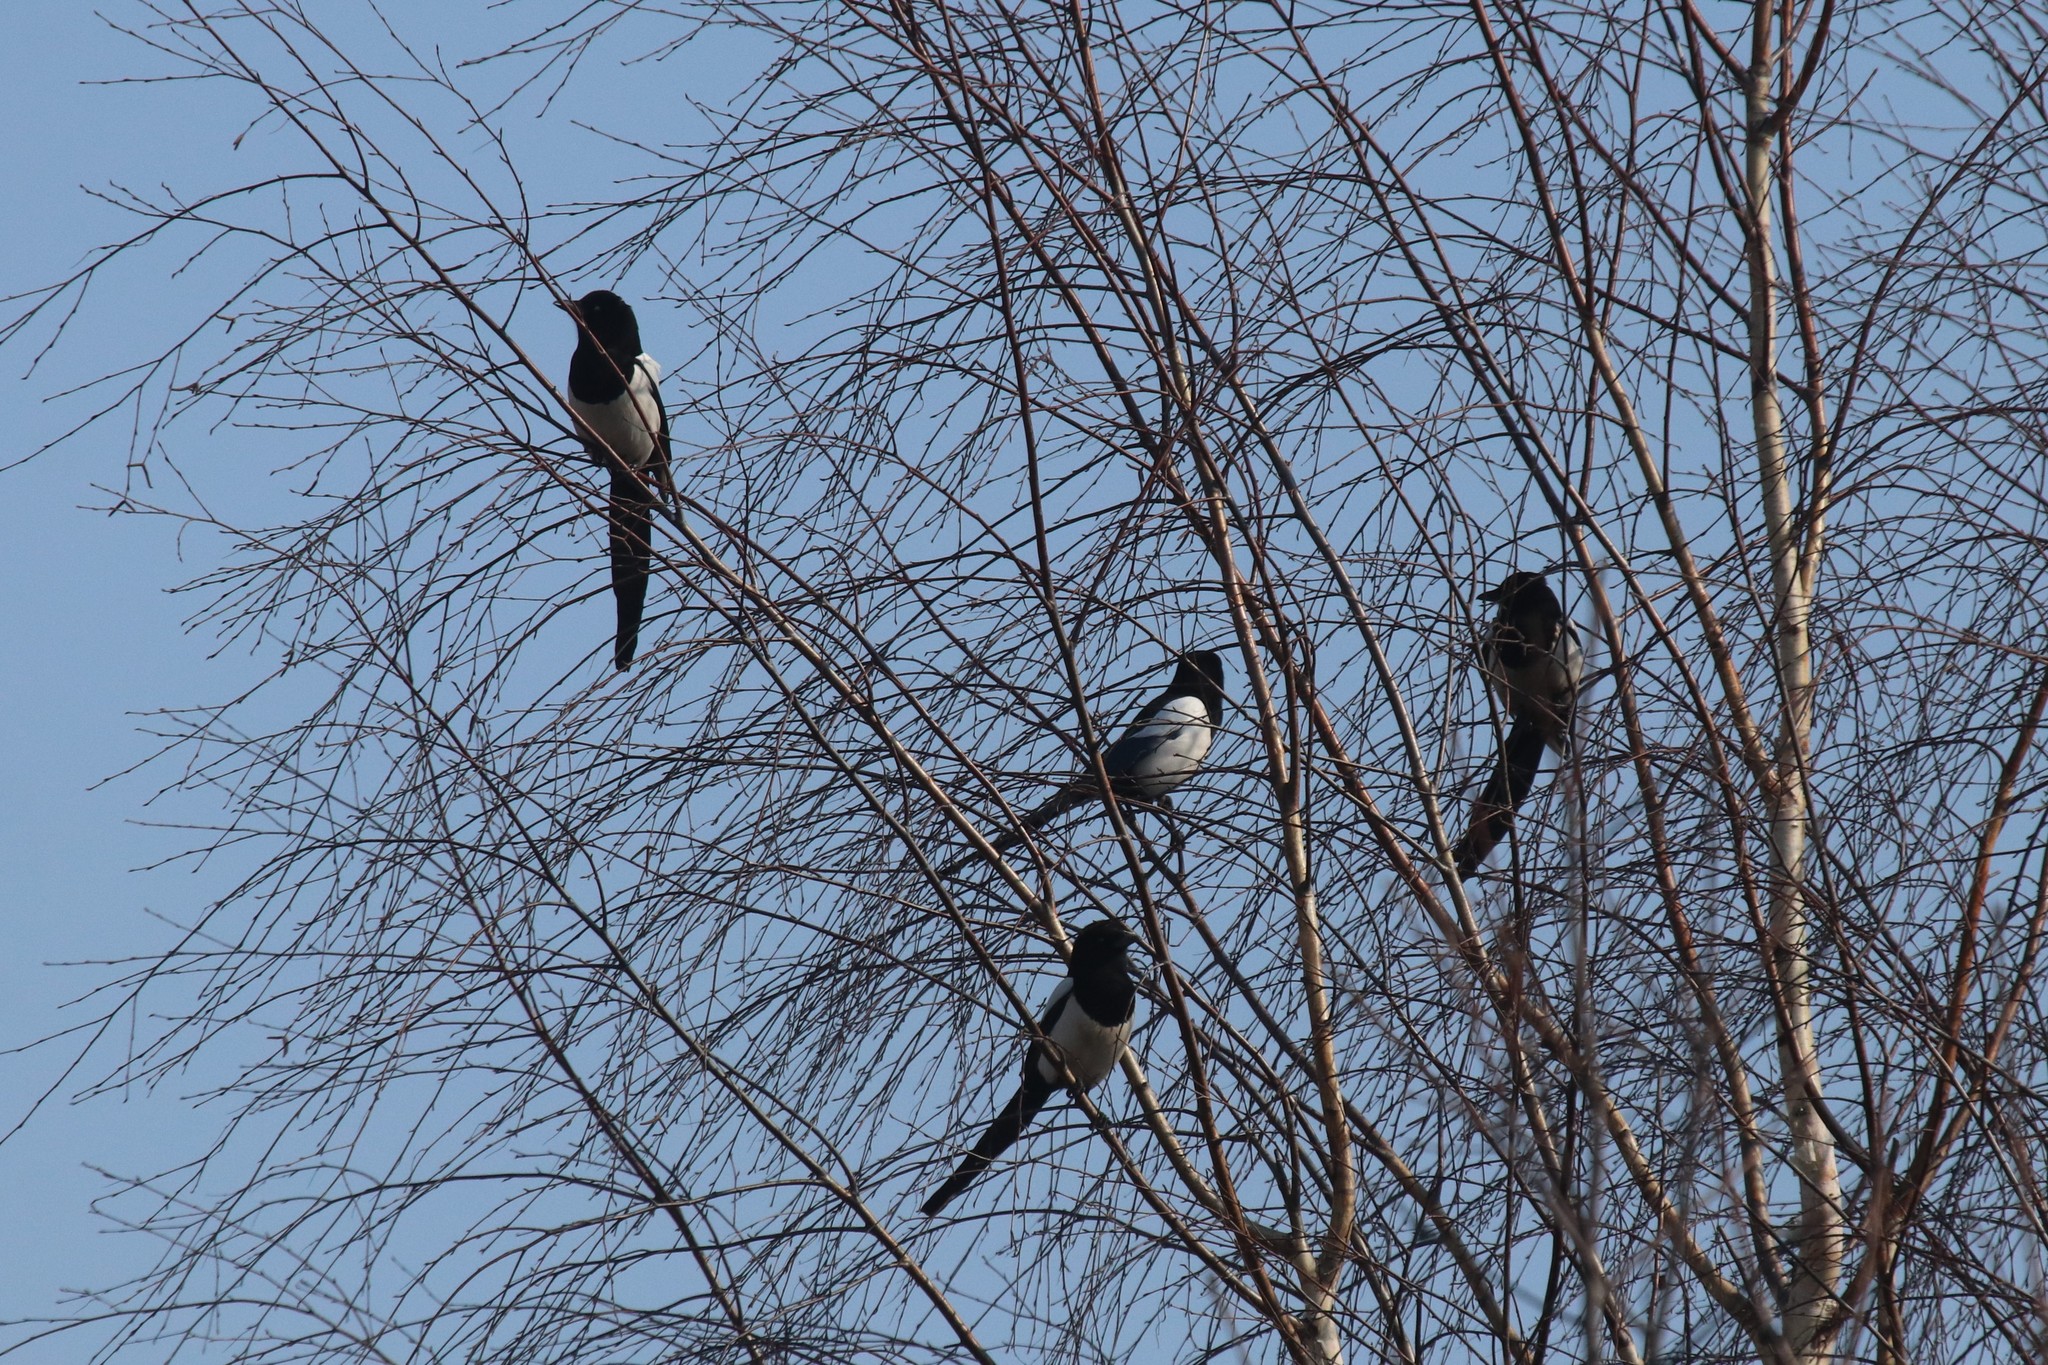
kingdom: Animalia
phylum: Chordata
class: Aves
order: Passeriformes
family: Corvidae
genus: Pica
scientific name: Pica pica
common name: Eurasian magpie
